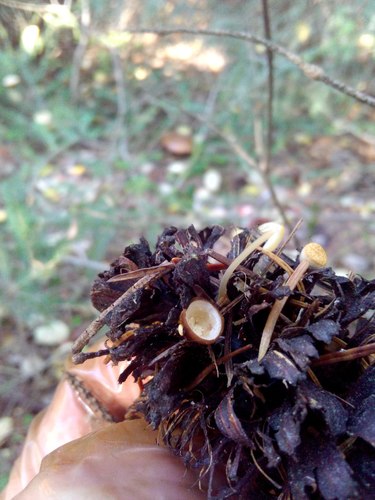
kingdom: Fungi
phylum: Basidiomycota
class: Agaricomycetes
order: Agaricales
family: Nidulariaceae
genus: Crucibulum
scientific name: Crucibulum laeve
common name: Common bird's nest
